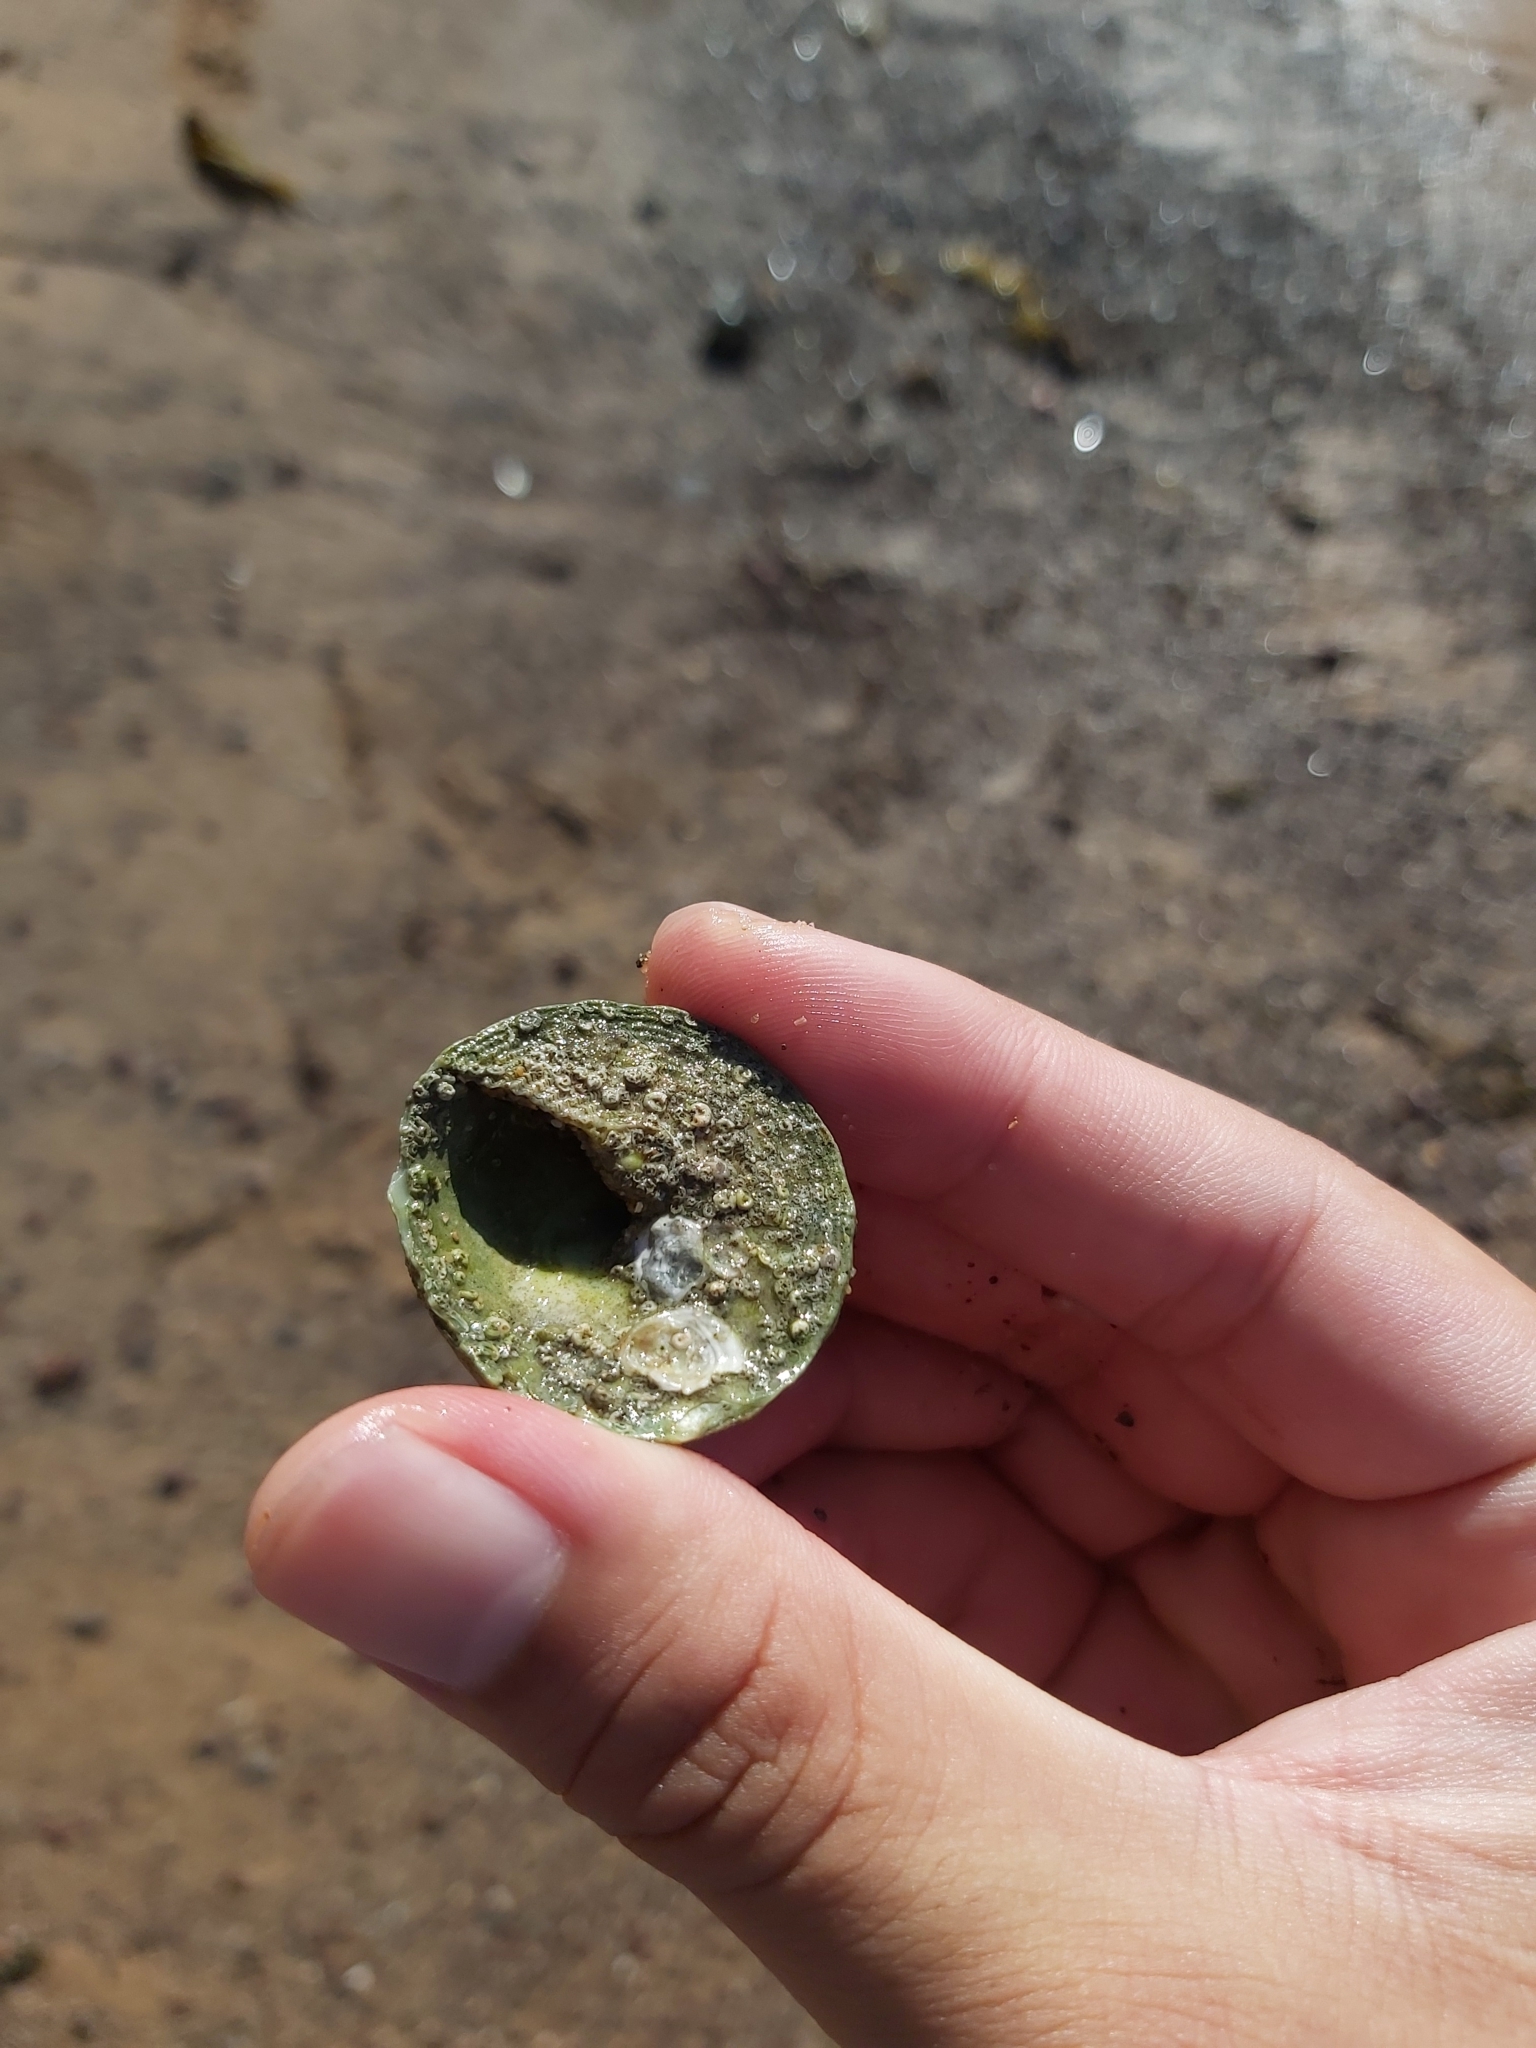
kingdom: Animalia
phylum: Mollusca
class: Gastropoda
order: Trochida
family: Turbinidae
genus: Astralium
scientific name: Astralium tentoriiforme
